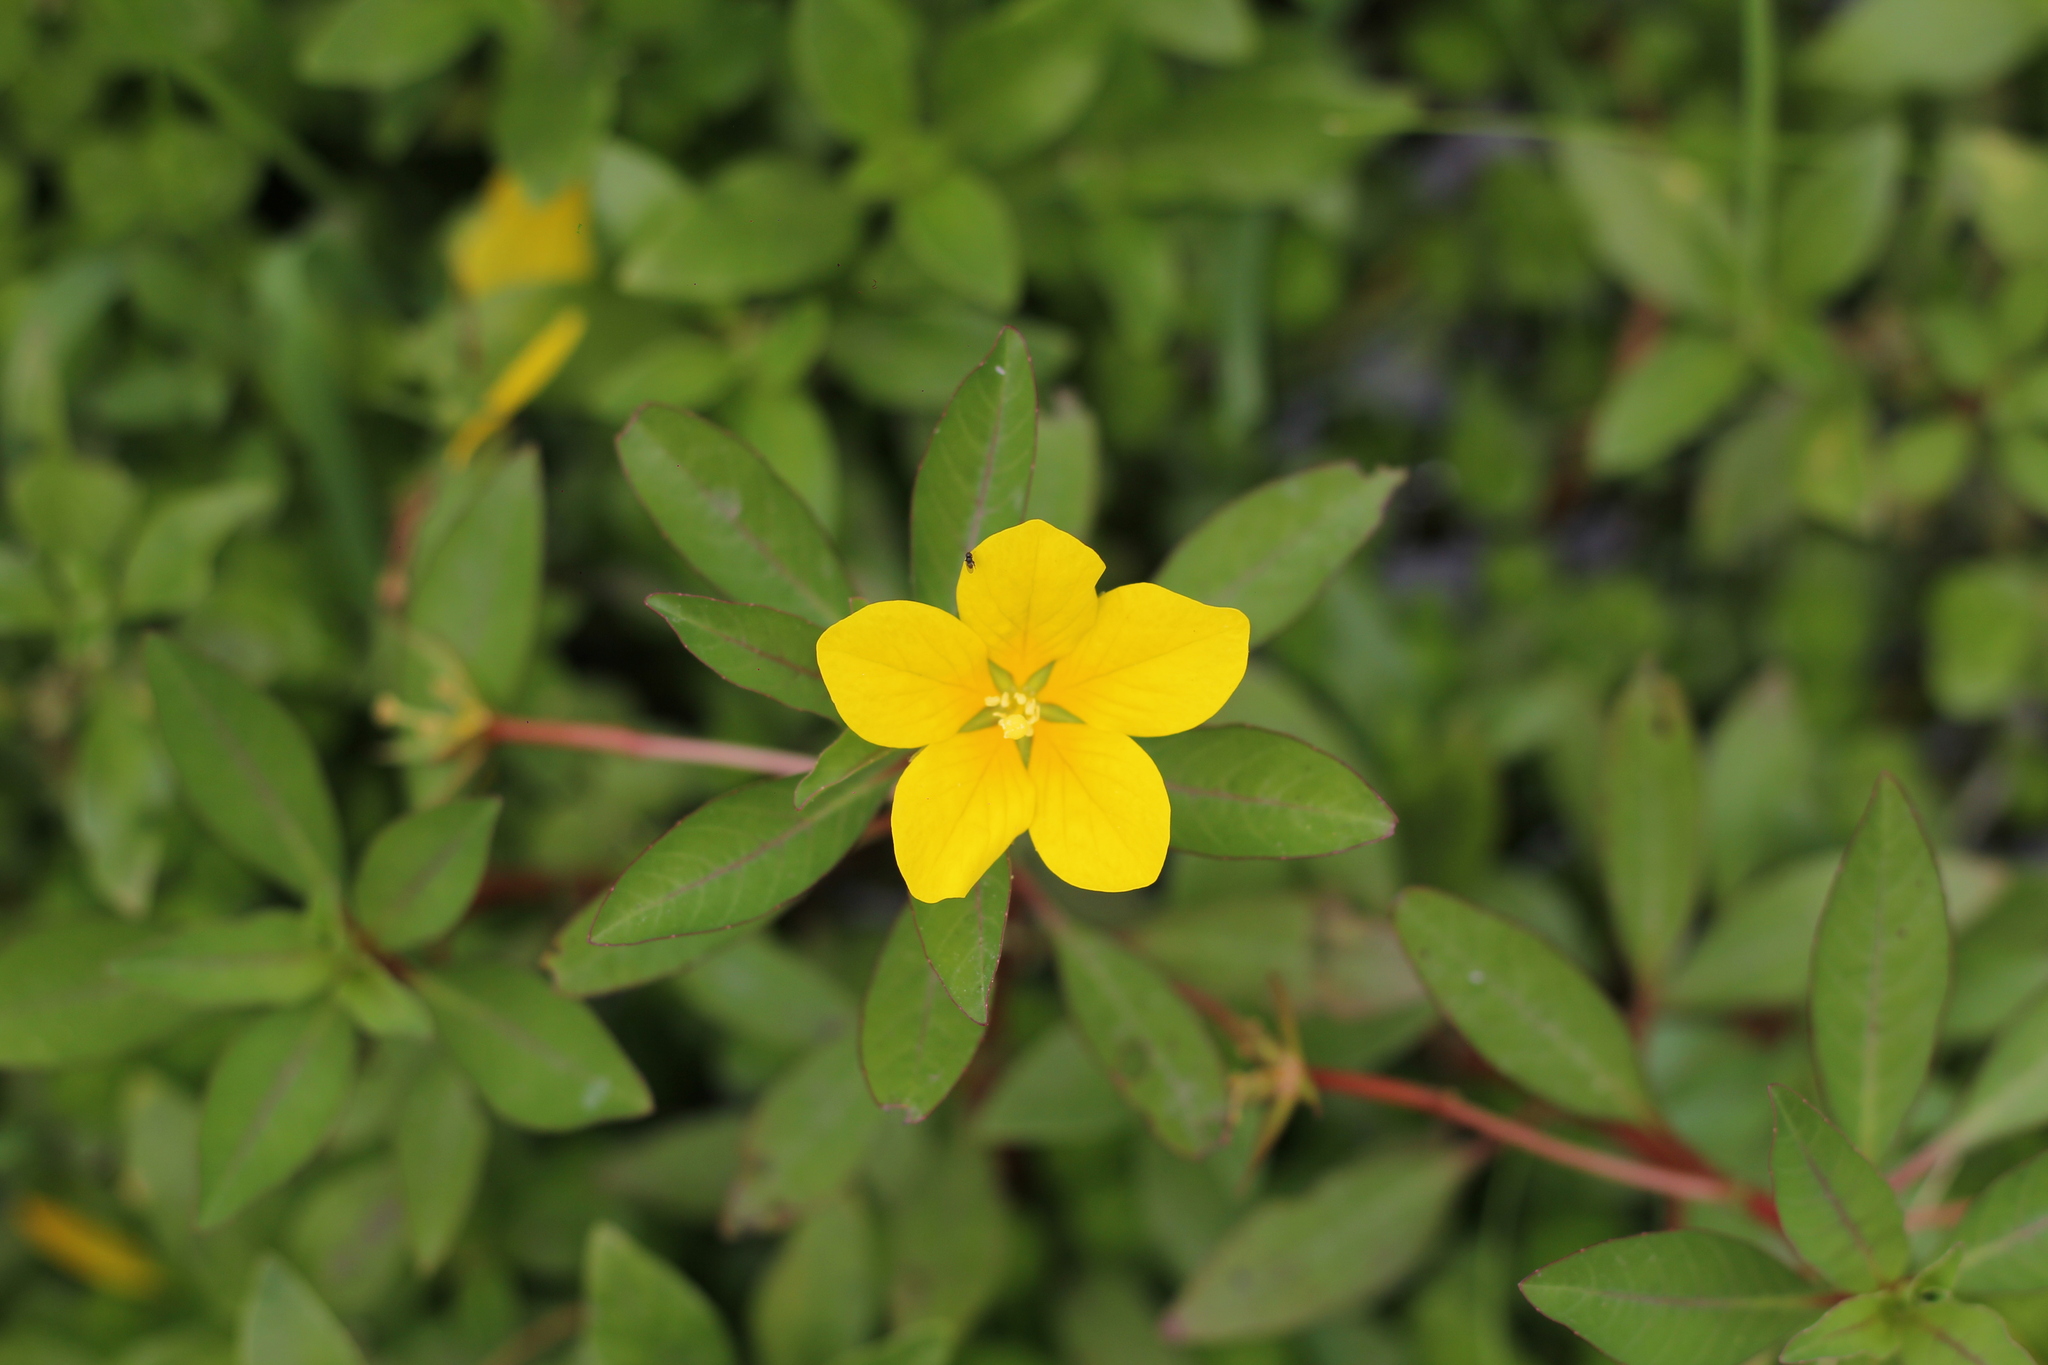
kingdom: Plantae
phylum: Tracheophyta
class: Magnoliopsida
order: Myrtales
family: Onagraceae
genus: Ludwigia
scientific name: Ludwigia peploides
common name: Floating primrose-willow
